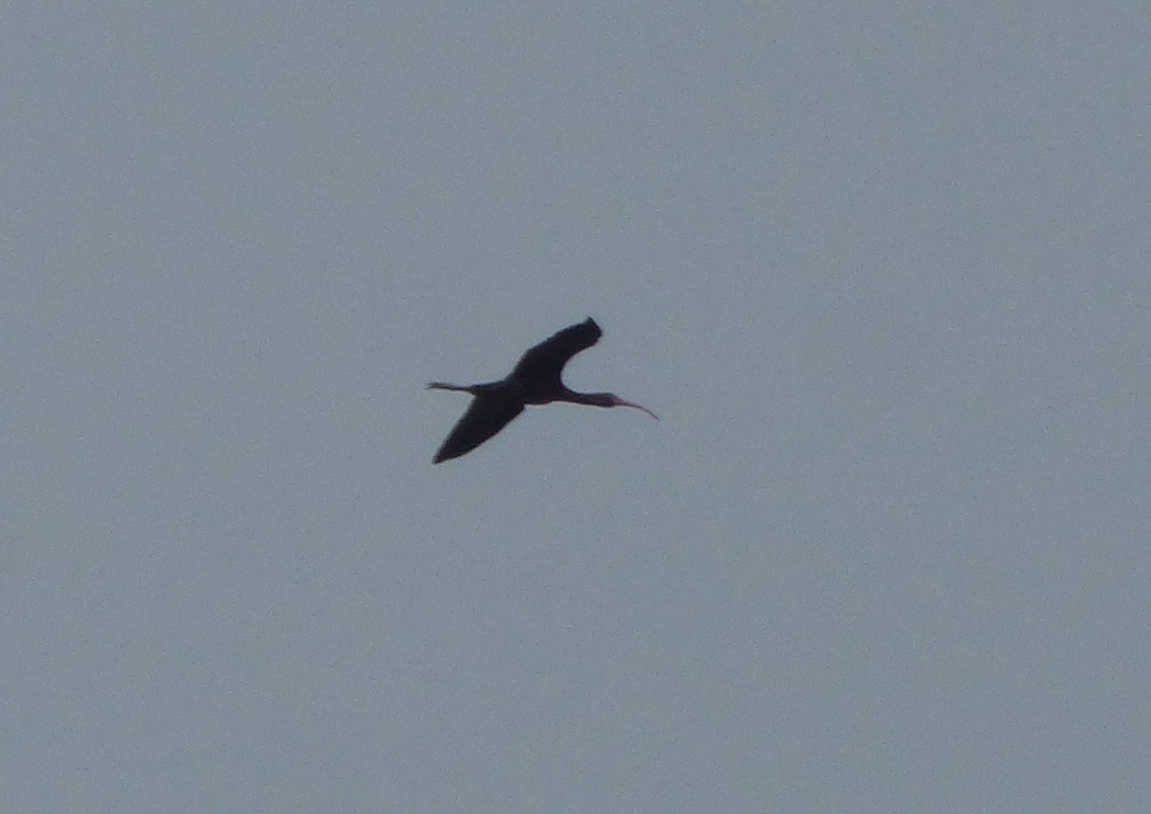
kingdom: Animalia
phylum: Chordata
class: Aves
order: Pelecaniformes
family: Threskiornithidae
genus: Plegadis
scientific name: Plegadis chihi
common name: White-faced ibis
